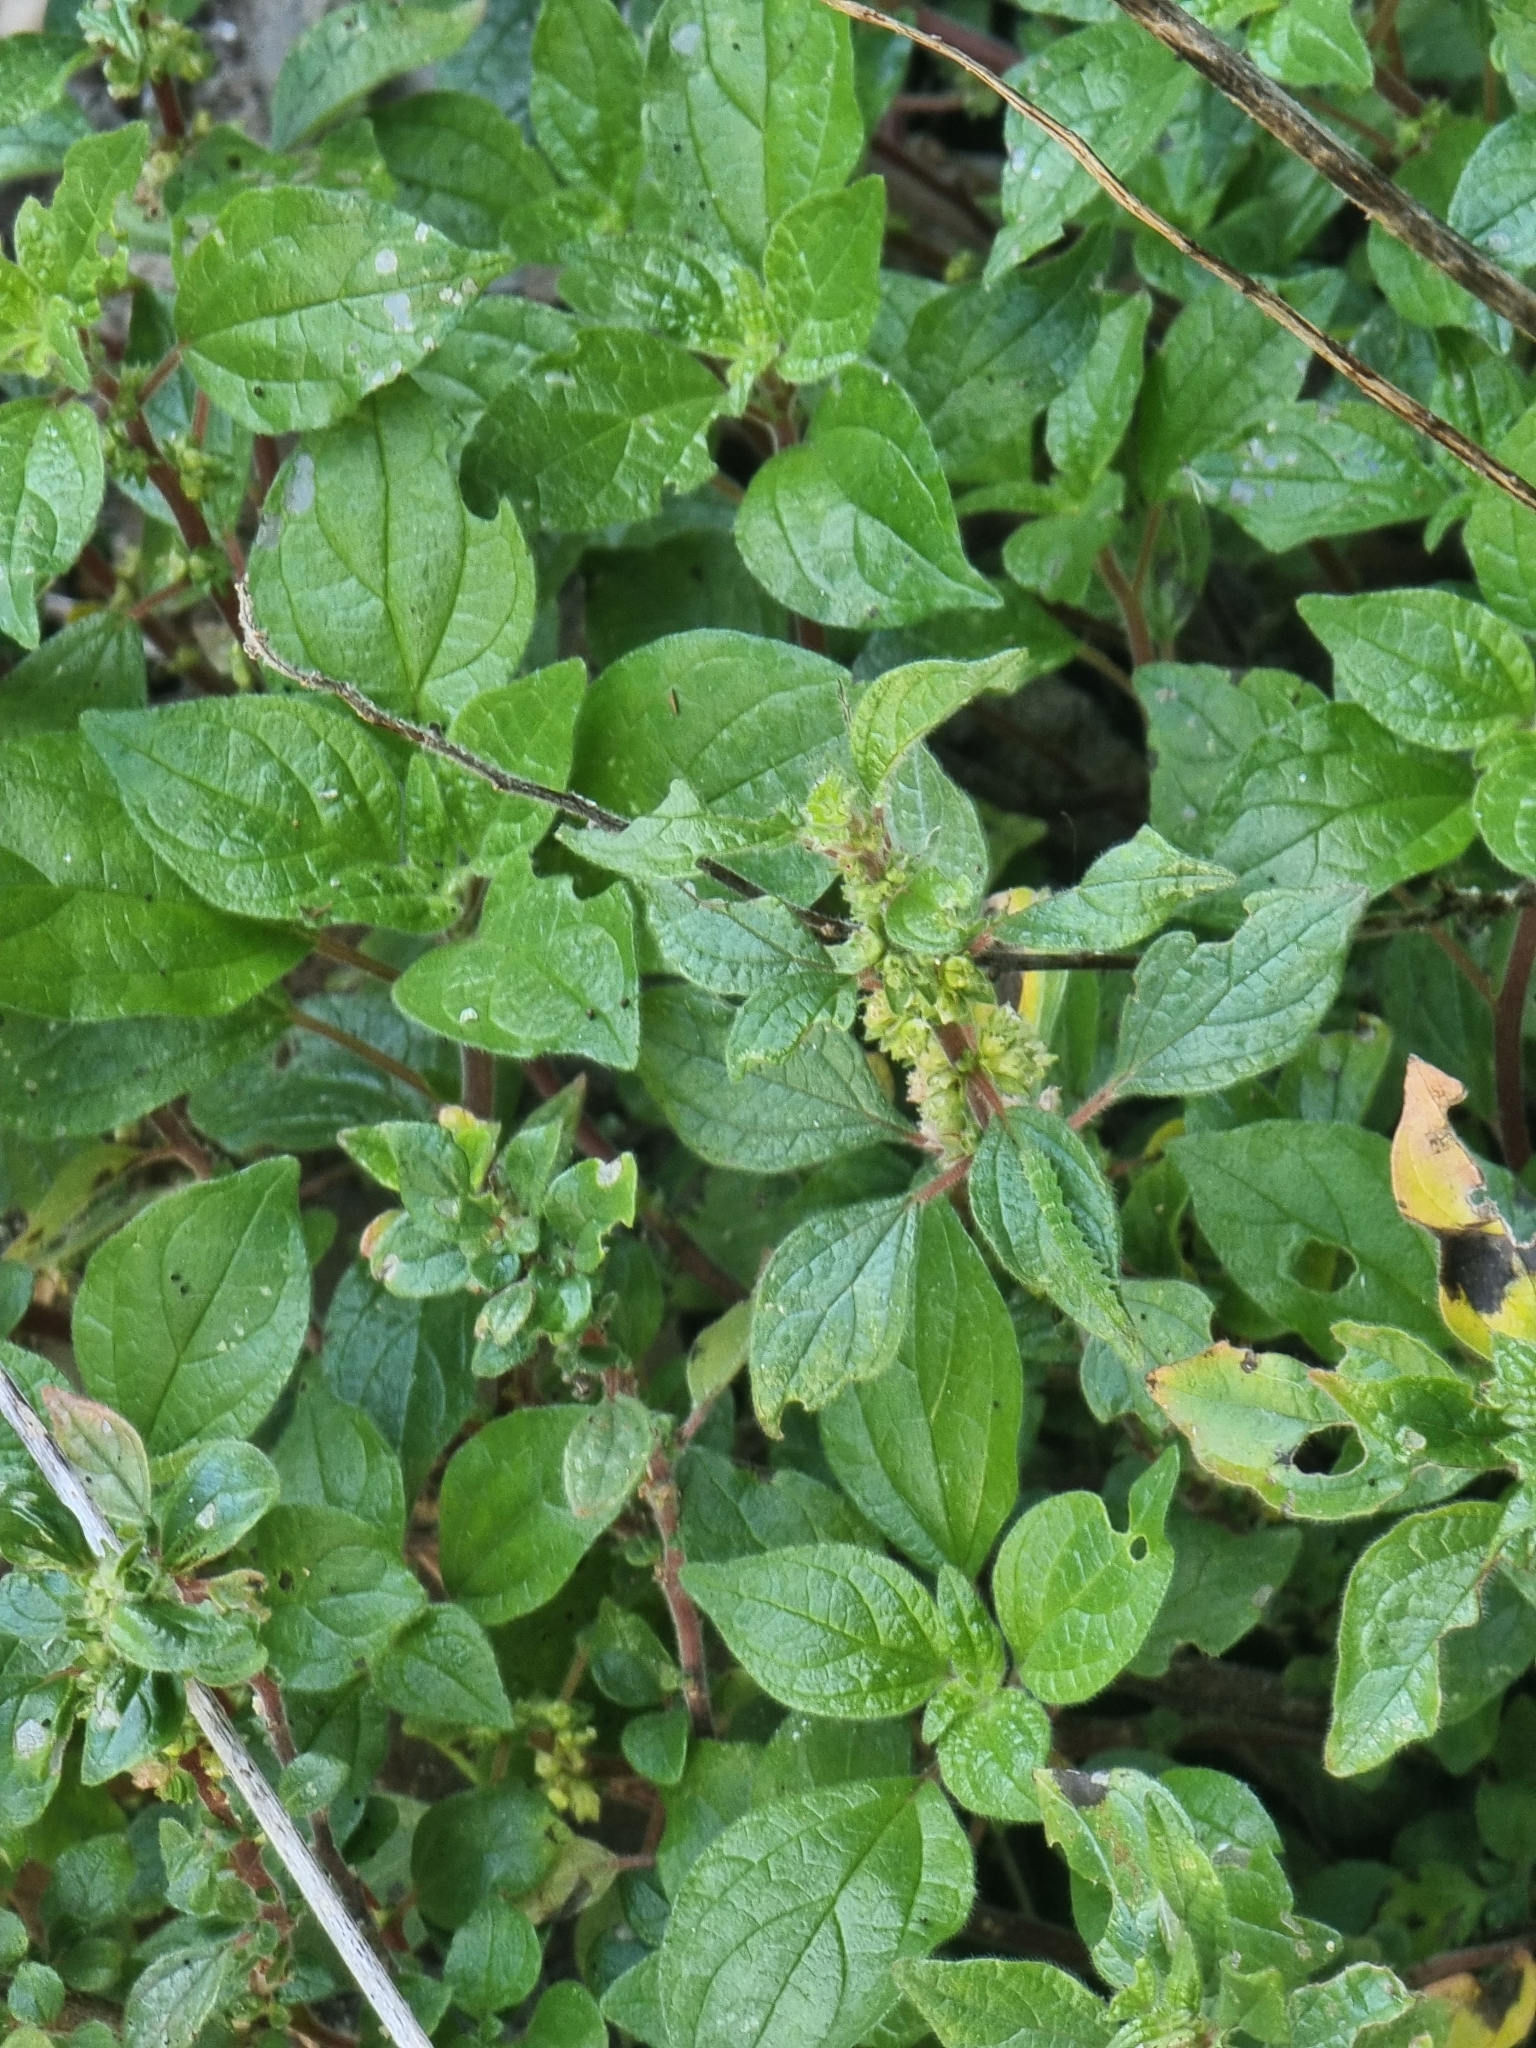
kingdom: Plantae
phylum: Tracheophyta
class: Magnoliopsida
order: Rosales
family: Urticaceae
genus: Parietaria
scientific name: Parietaria judaica
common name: Pellitory-of-the-wall
